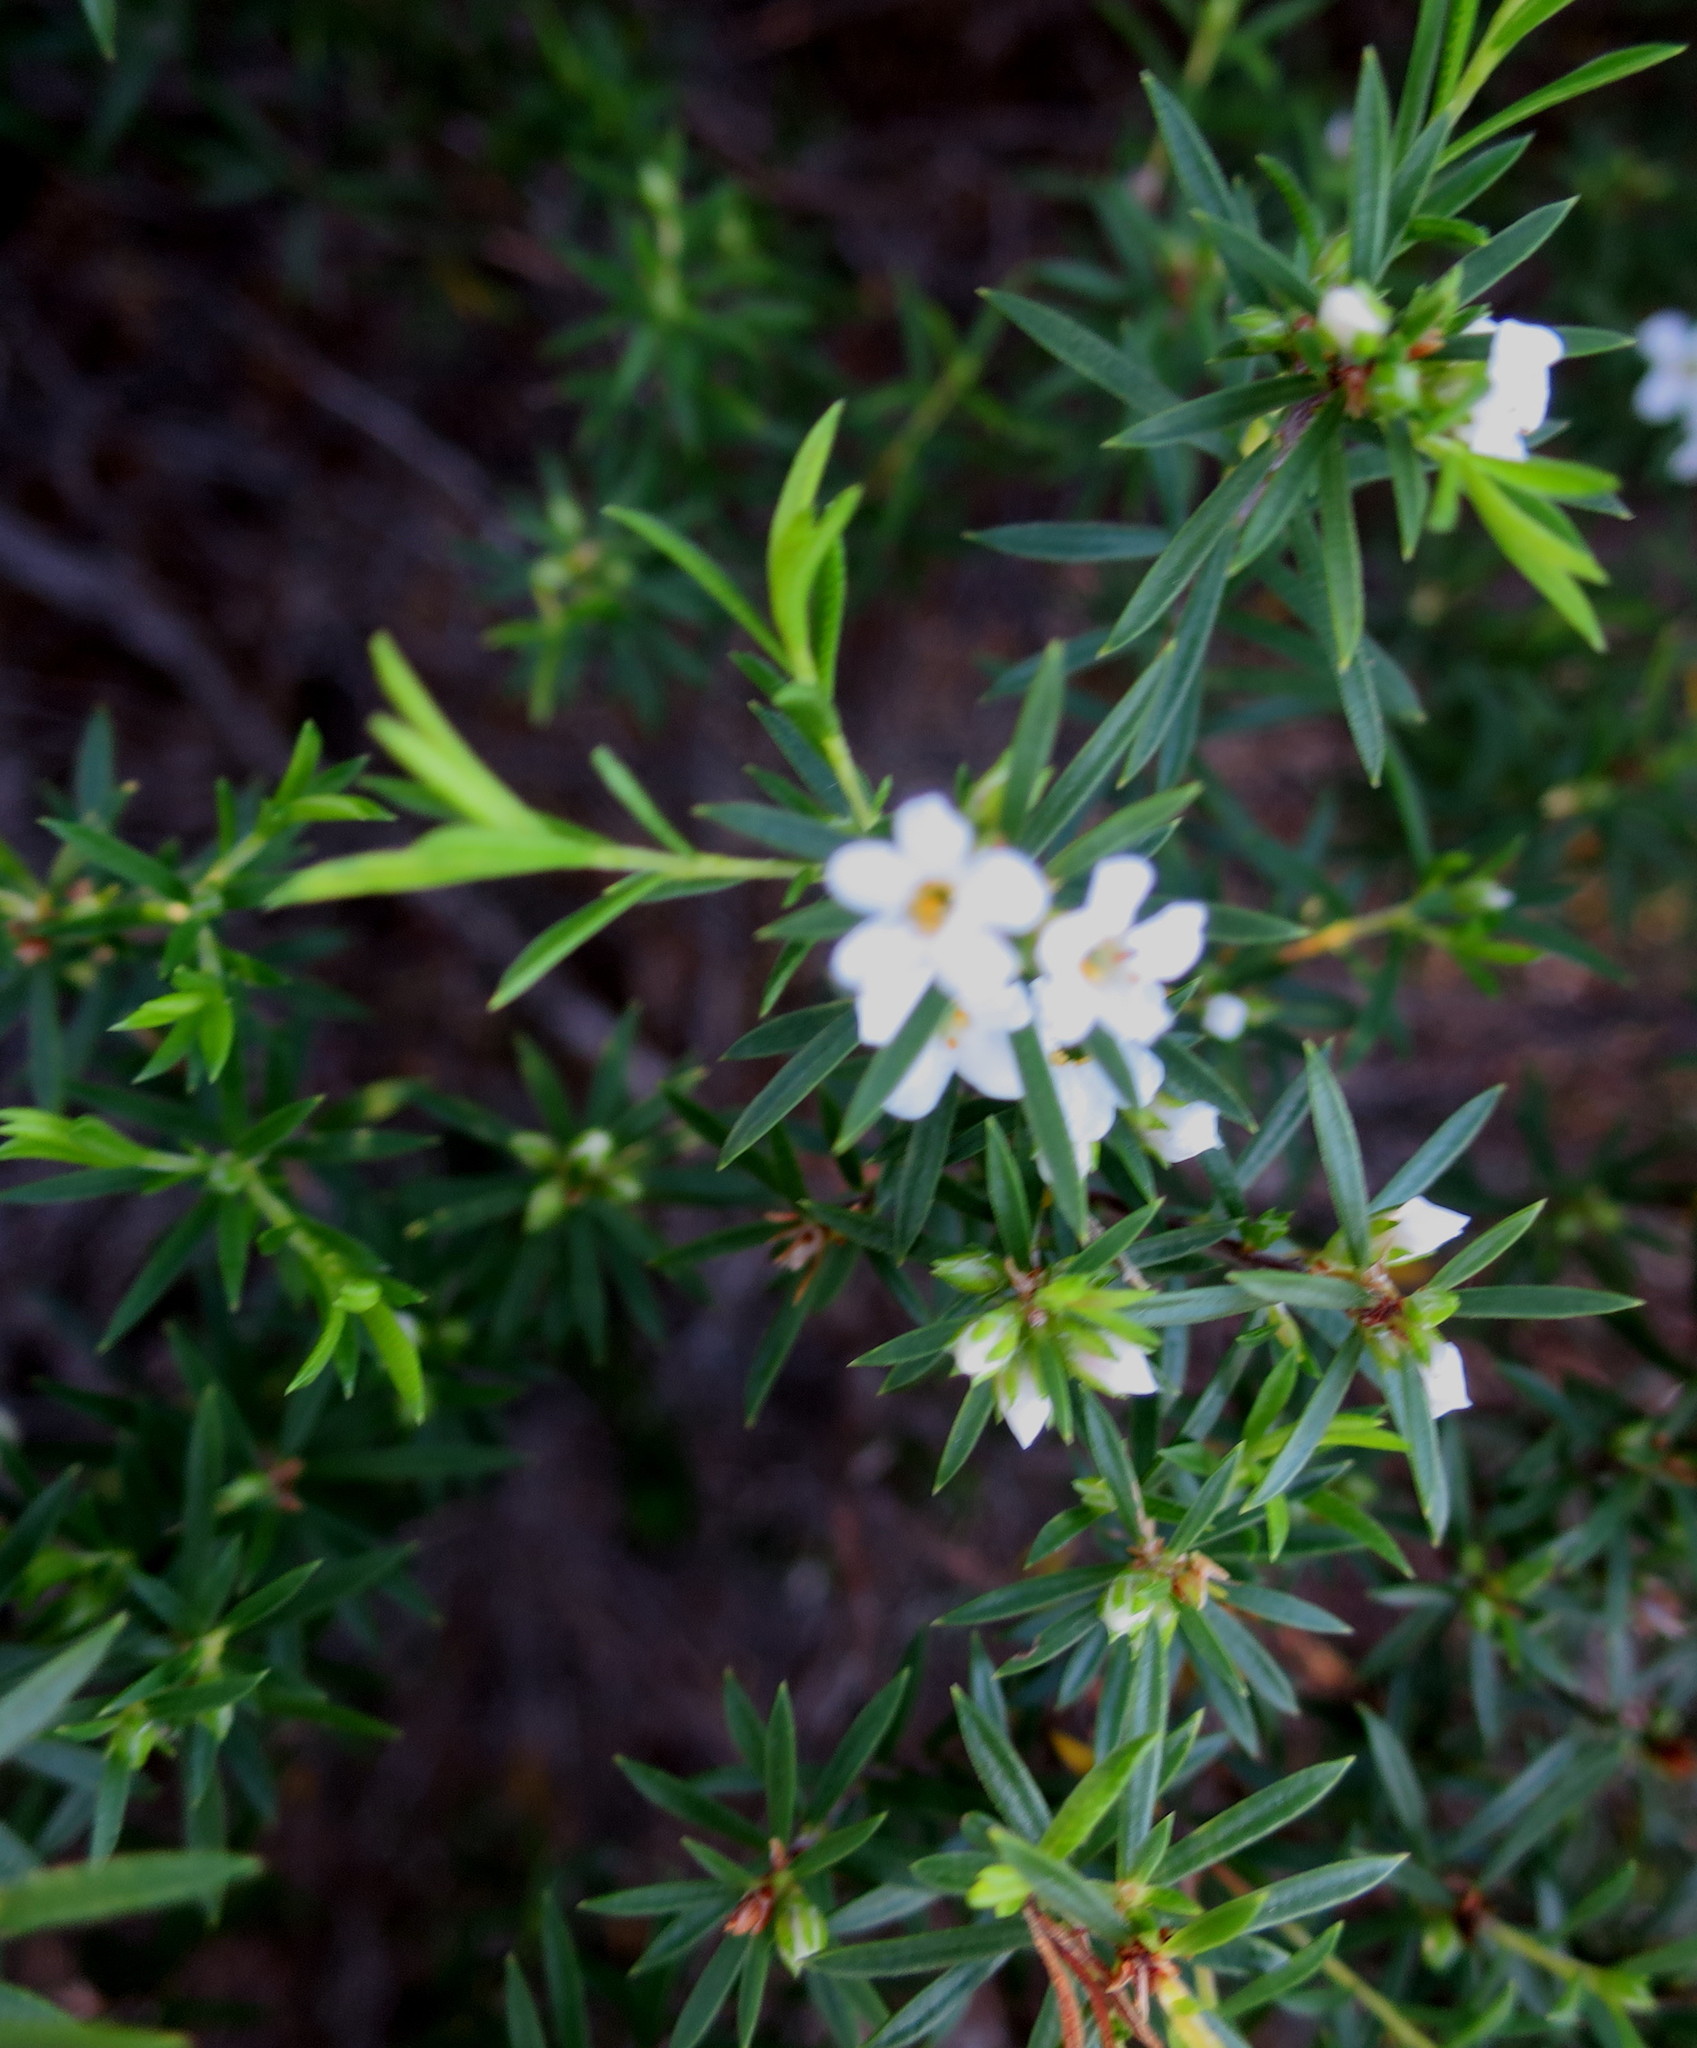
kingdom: Plantae
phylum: Tracheophyta
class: Magnoliopsida
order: Sapindales
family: Rutaceae
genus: Coleonema
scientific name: Coleonema album
